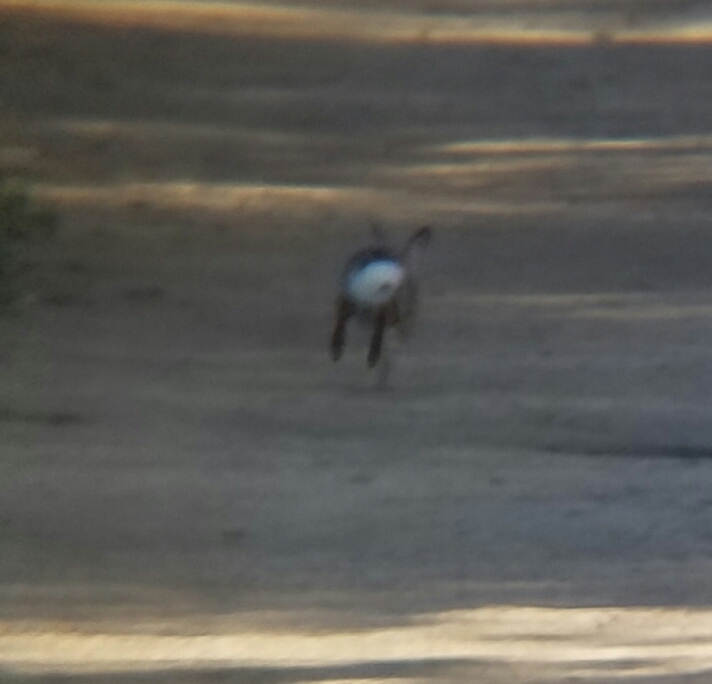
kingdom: Animalia
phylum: Chordata
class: Mammalia
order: Lagomorpha
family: Leporidae
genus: Sylvilagus
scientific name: Sylvilagus audubonii
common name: Desert cottontail
